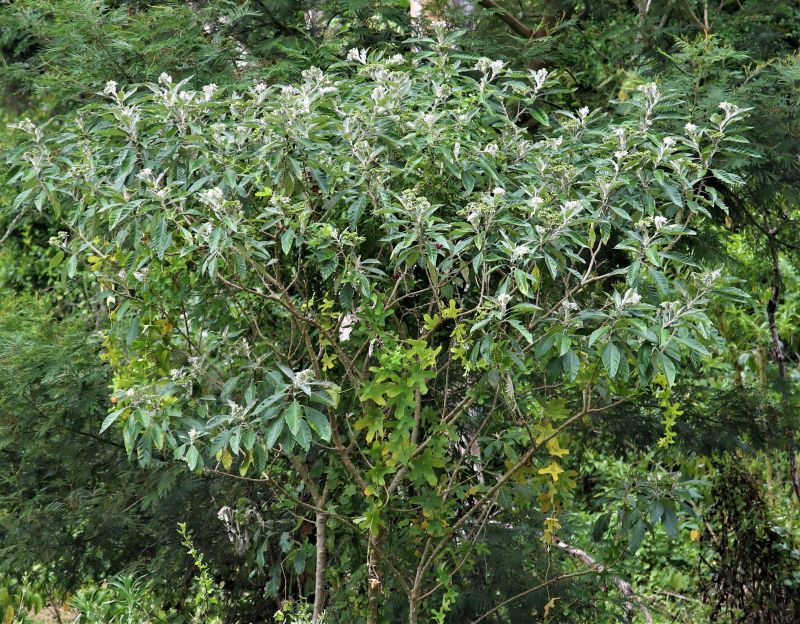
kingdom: Plantae
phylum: Tracheophyta
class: Magnoliopsida
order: Solanales
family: Solanaceae
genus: Solanum
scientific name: Solanum mauritianum
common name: Earleaf nightshade
